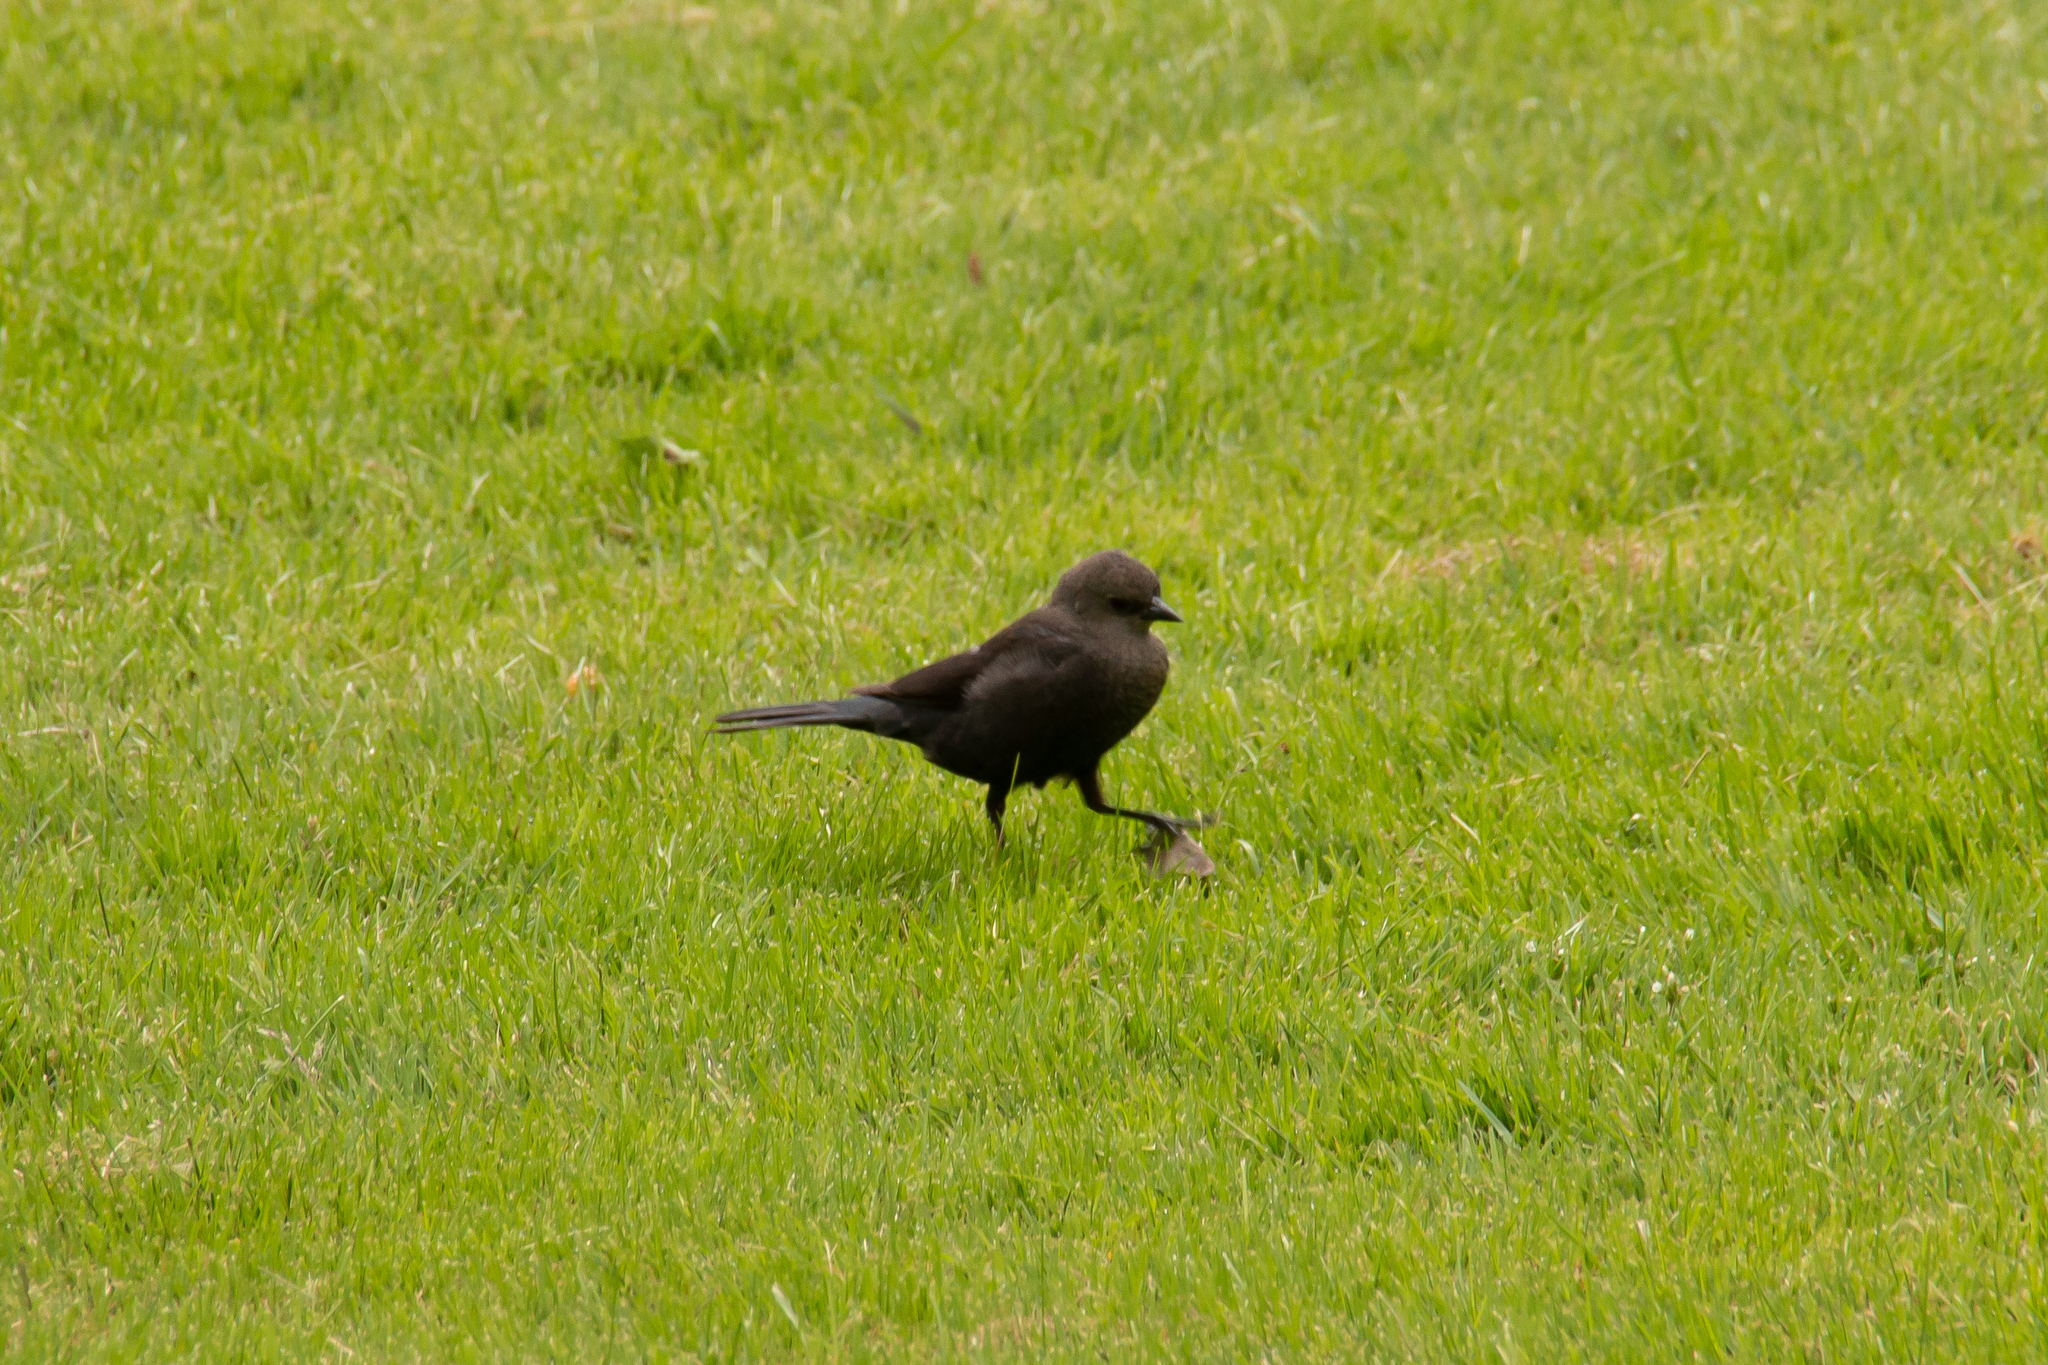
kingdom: Animalia
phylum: Chordata
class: Aves
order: Passeriformes
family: Icteridae
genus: Euphagus
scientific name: Euphagus cyanocephalus
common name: Brewer's blackbird
